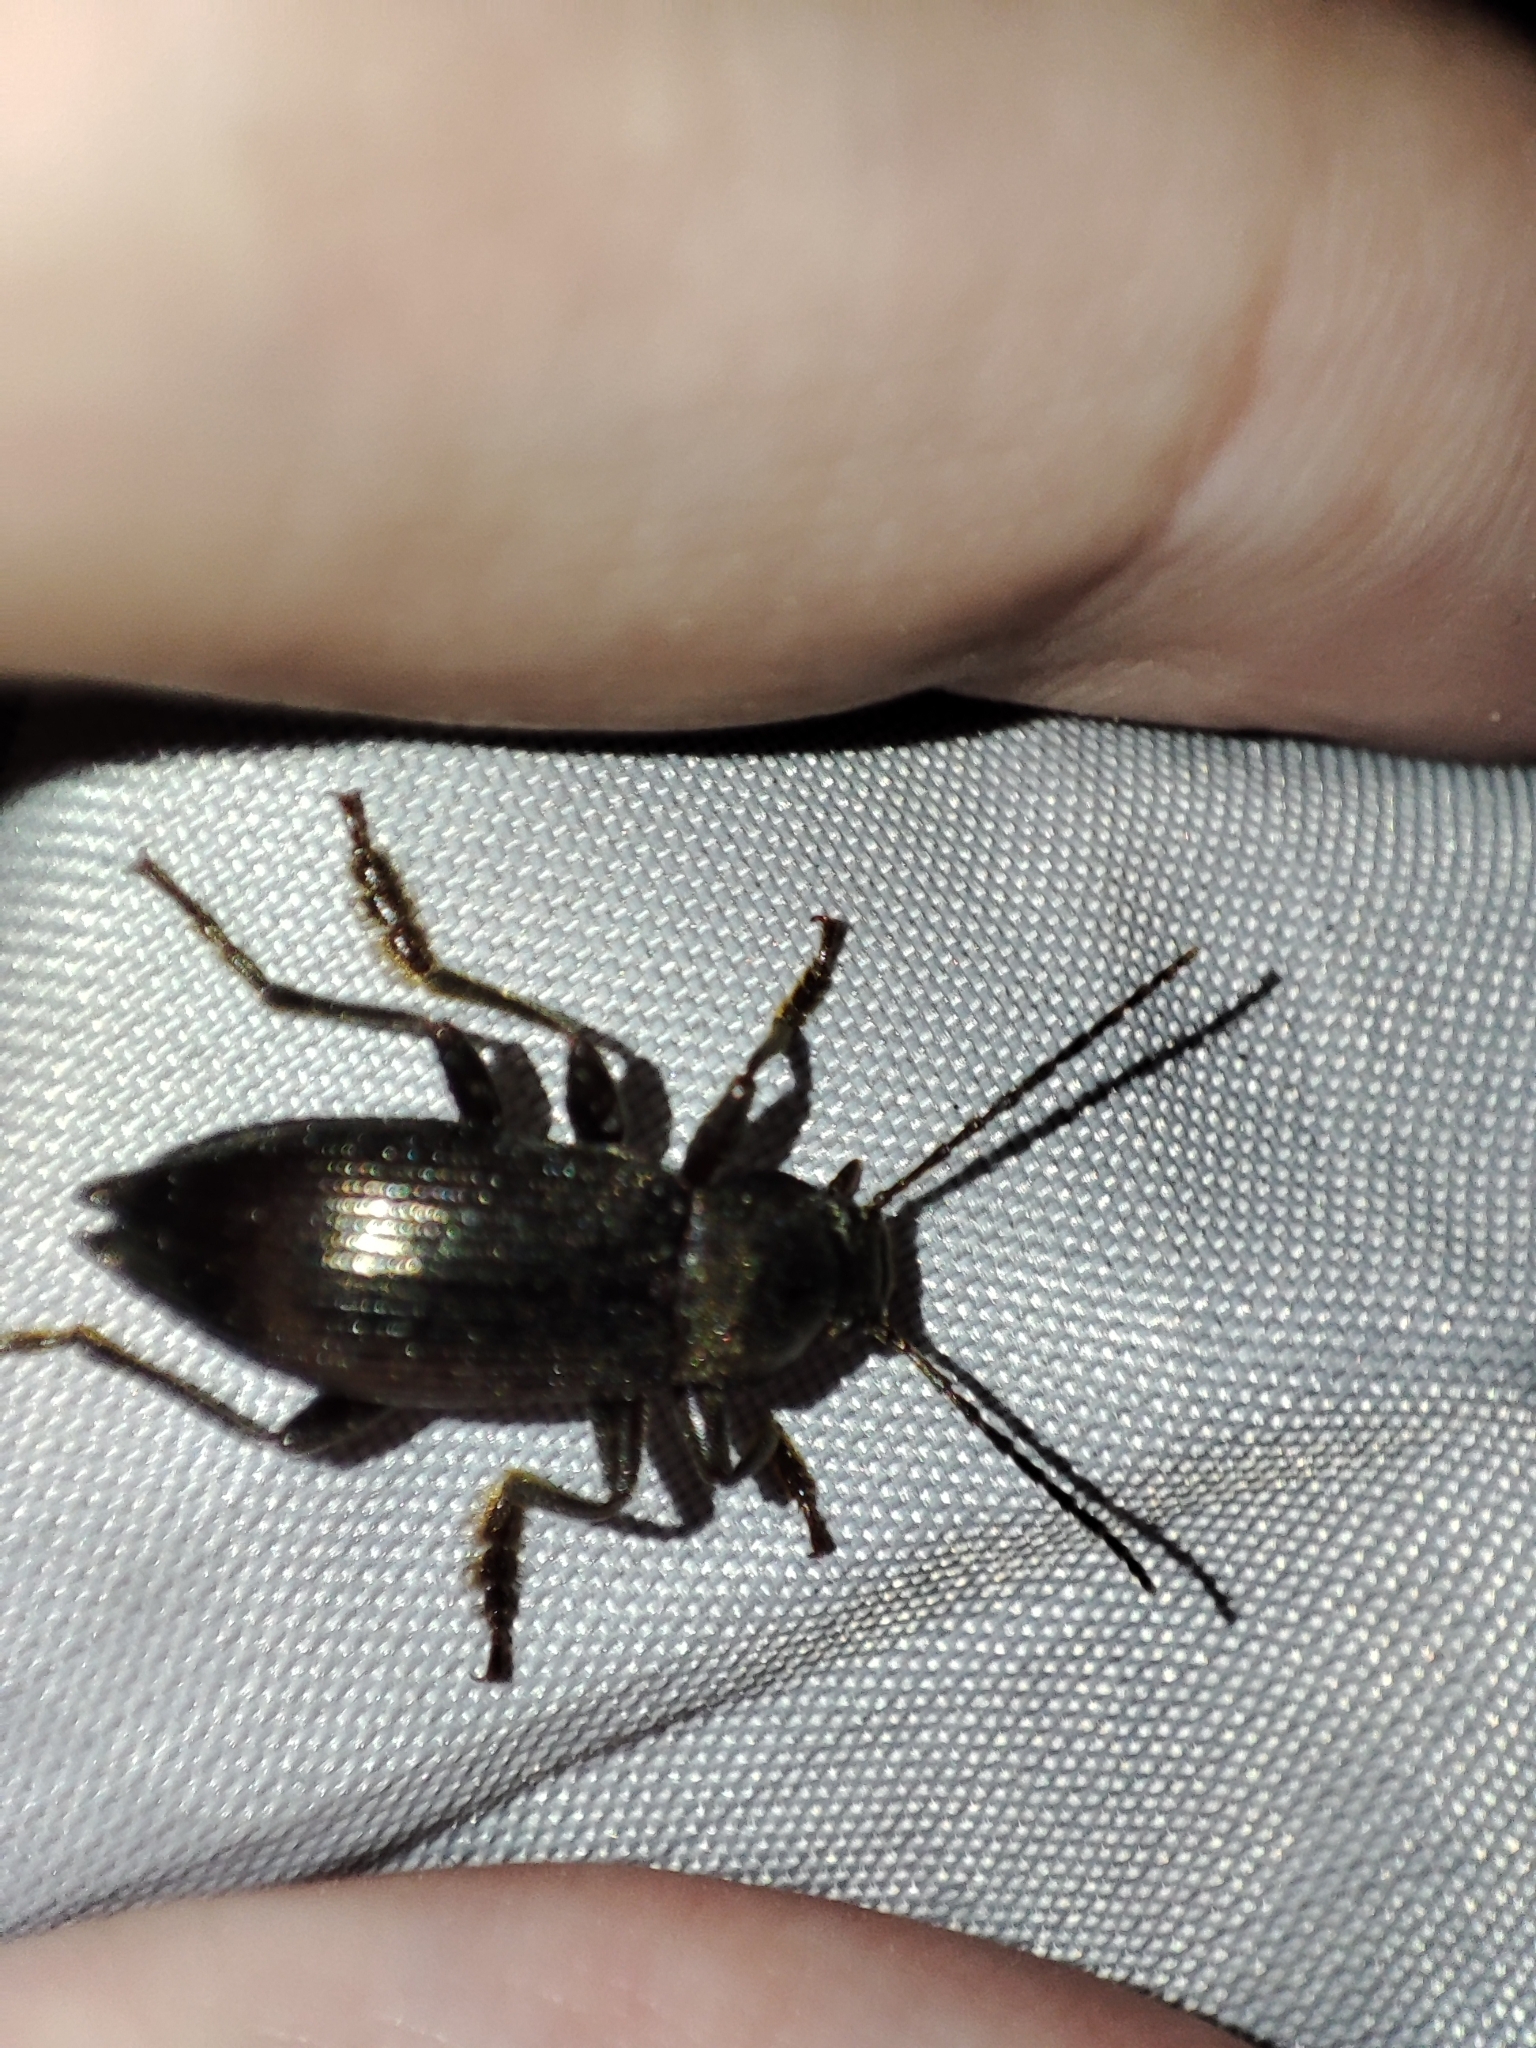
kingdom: Animalia
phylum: Arthropoda
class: Insecta
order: Coleoptera
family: Tenebrionidae
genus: Stenomax
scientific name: Stenomax aeneus
